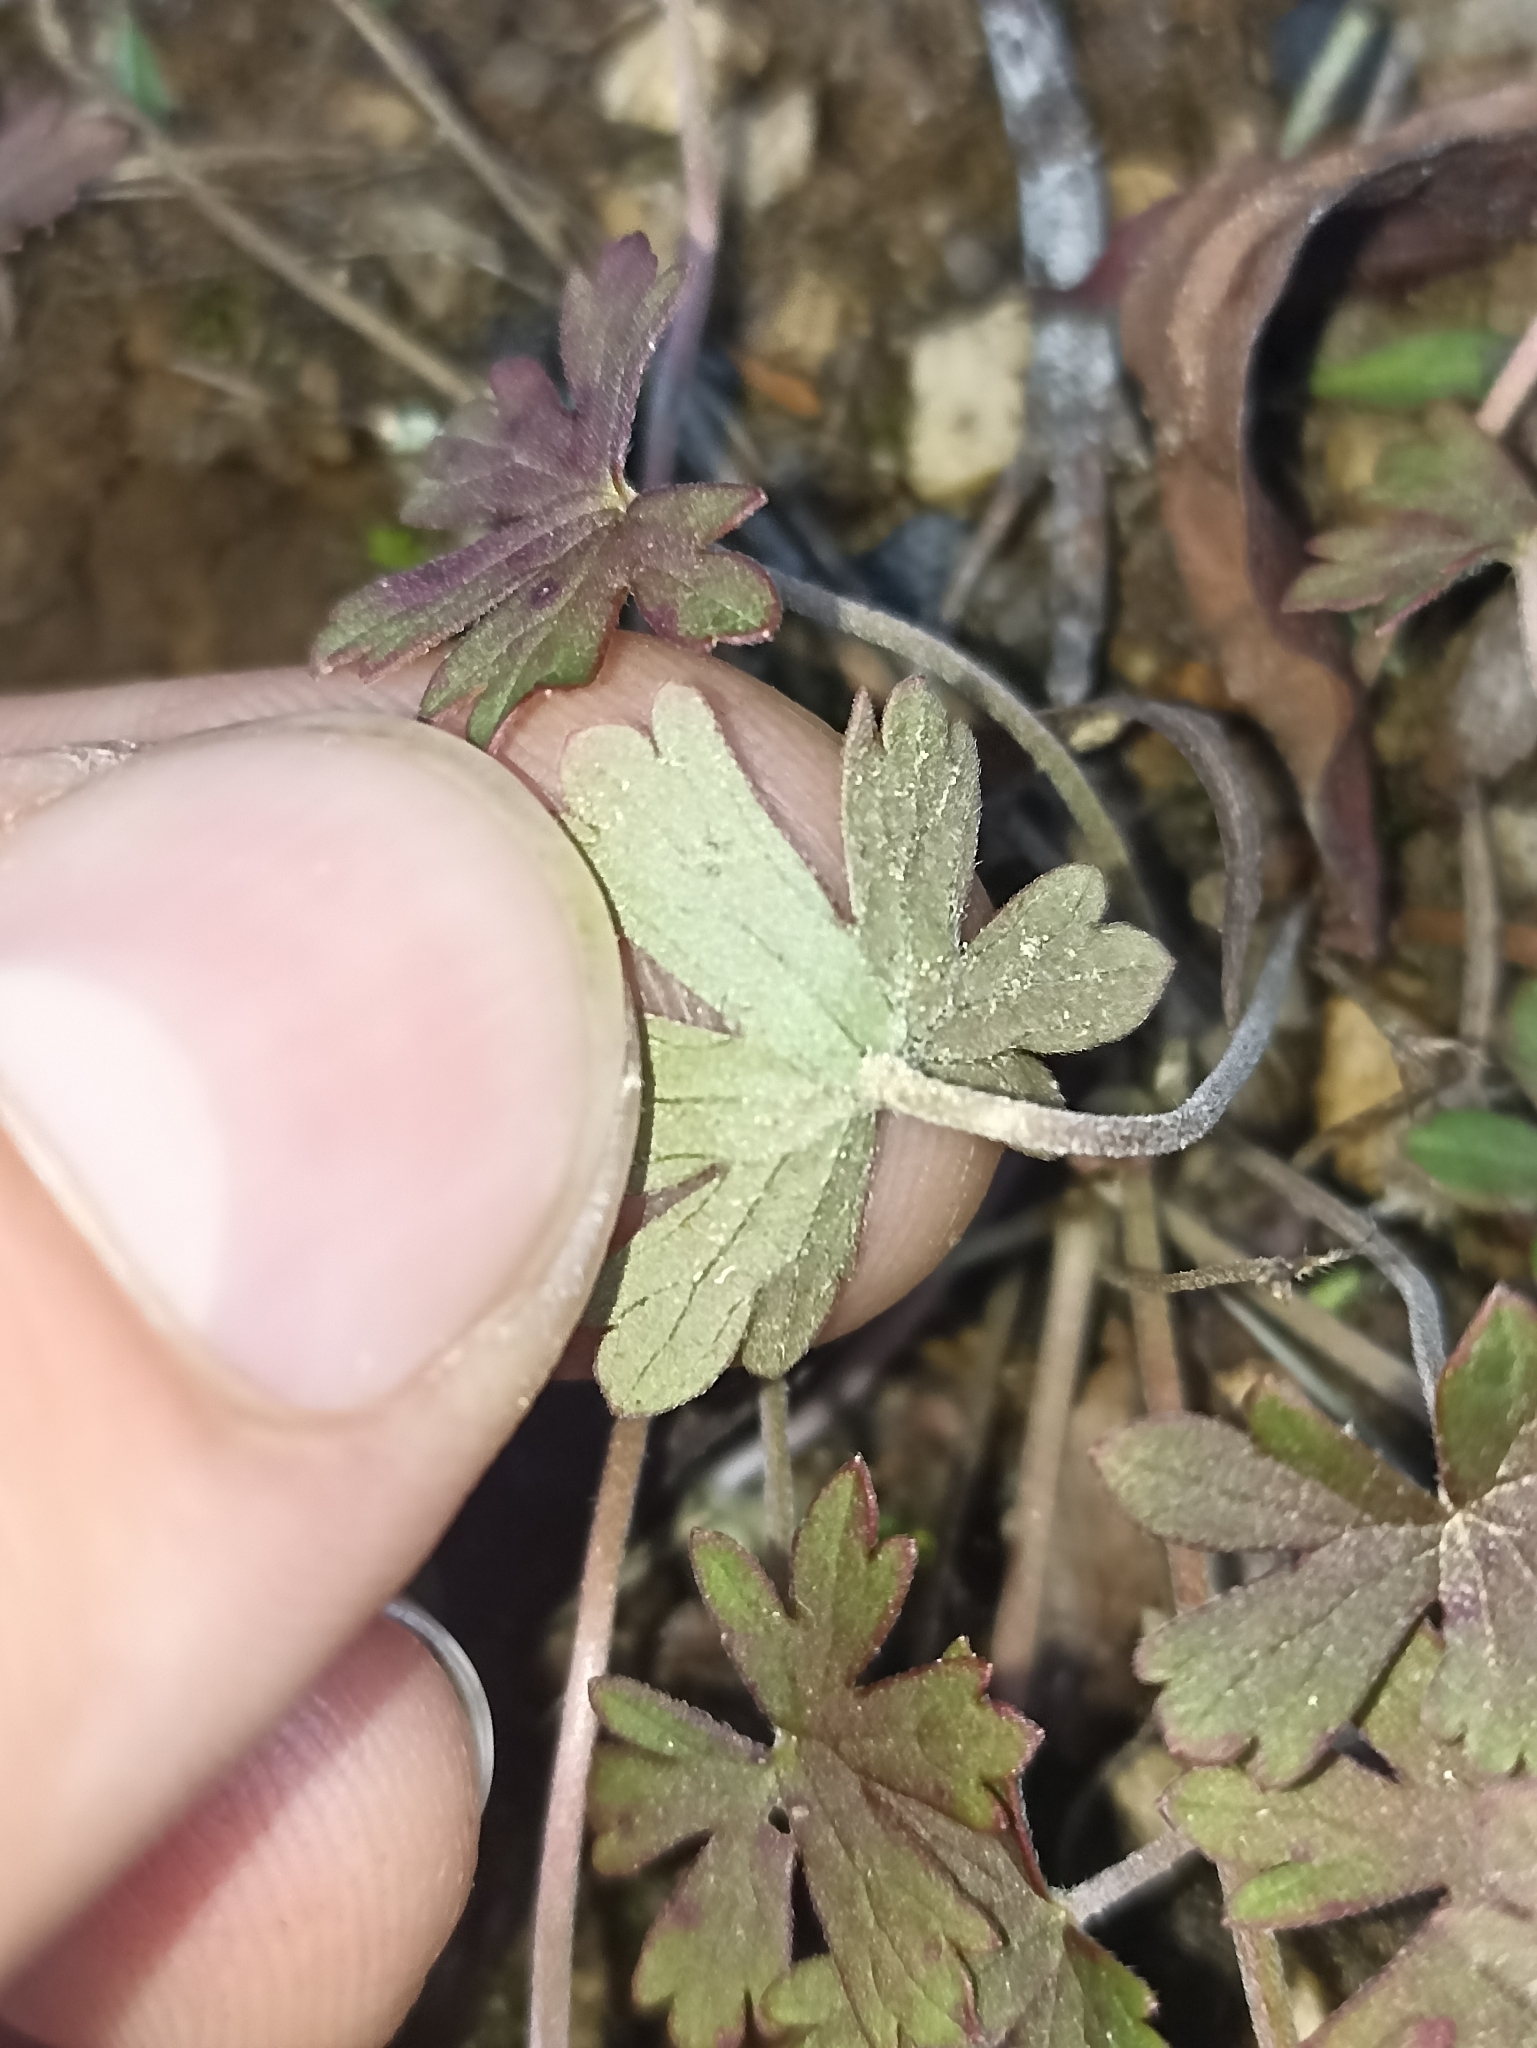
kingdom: Plantae
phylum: Tracheophyta
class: Magnoliopsida
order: Geraniales
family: Geraniaceae
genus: Geranium
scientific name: Geranium potentilloides
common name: Cinquefoil geranium
